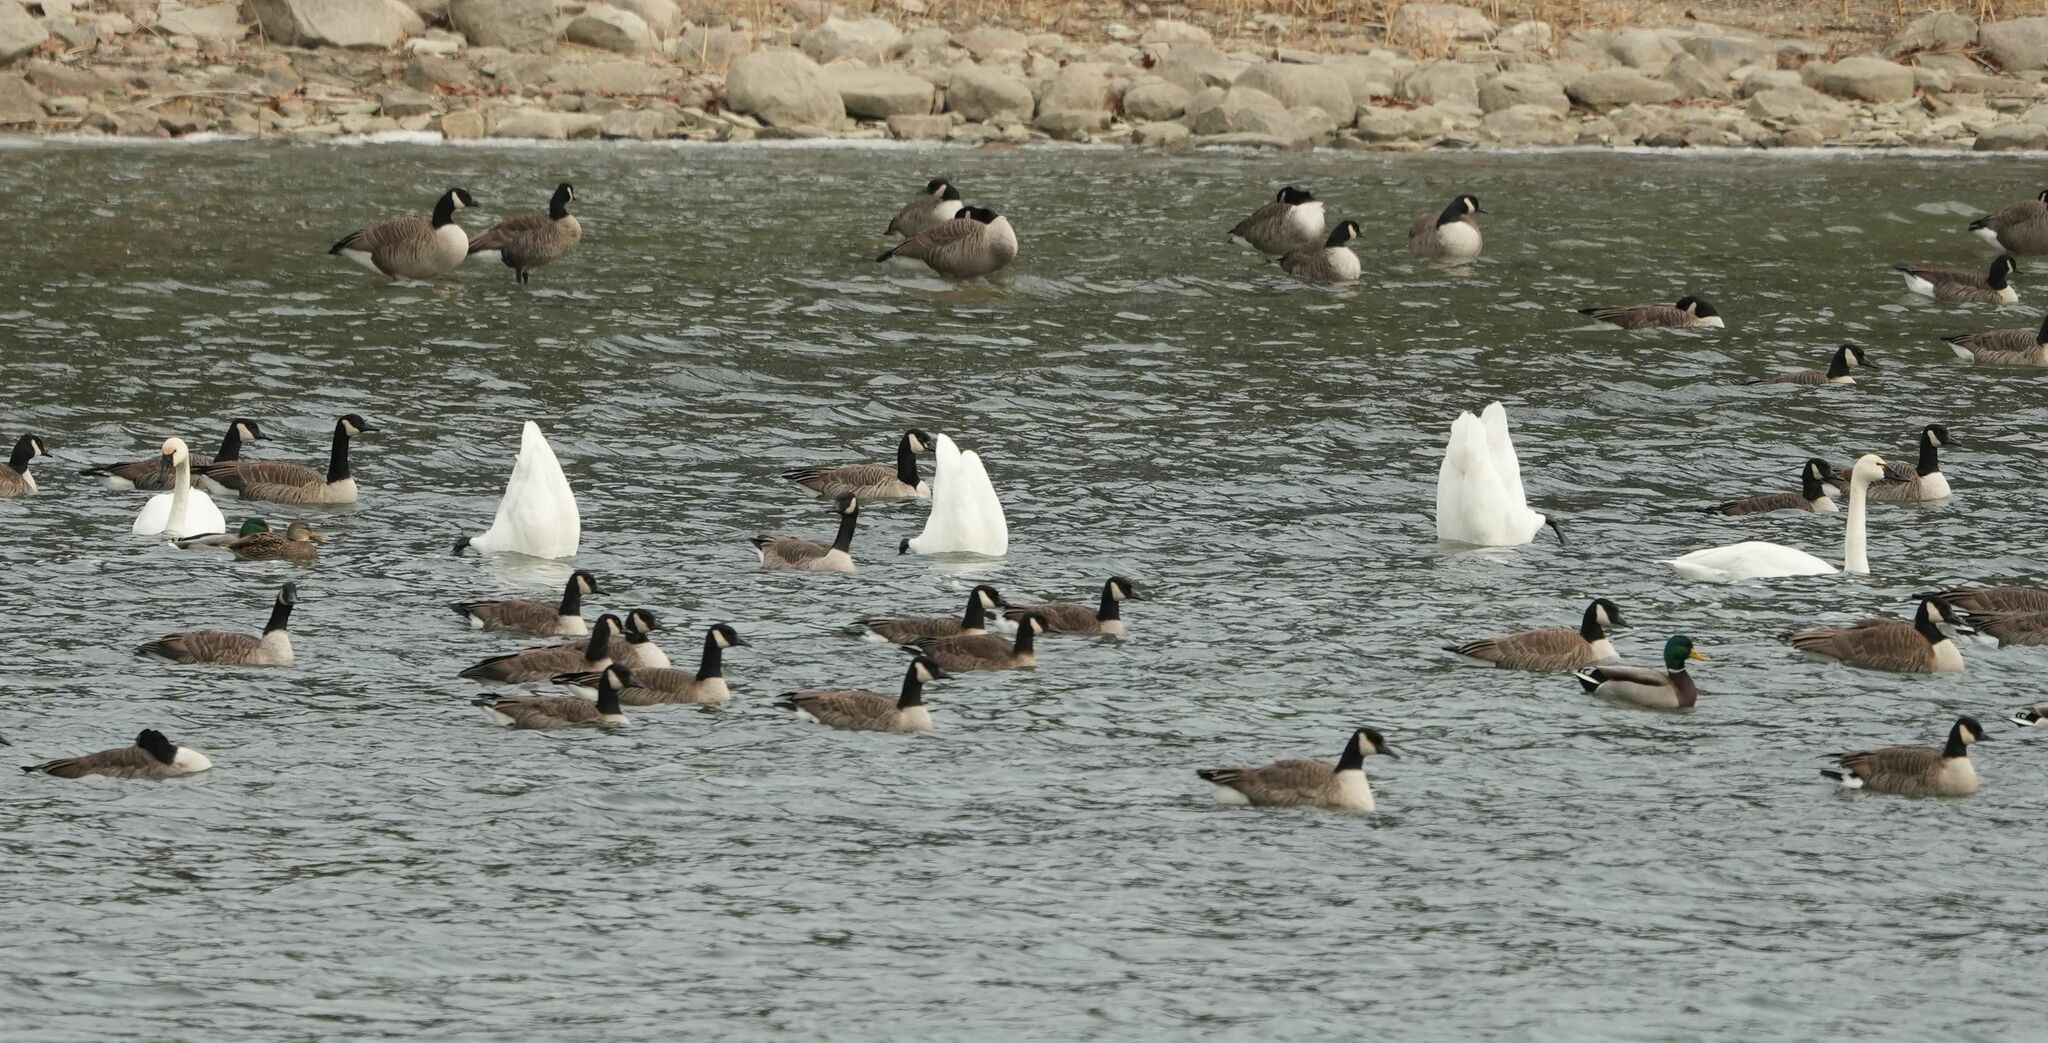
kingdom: Animalia
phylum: Chordata
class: Aves
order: Anseriformes
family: Anatidae
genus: Cygnus
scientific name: Cygnus columbianus
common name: Tundra swan
